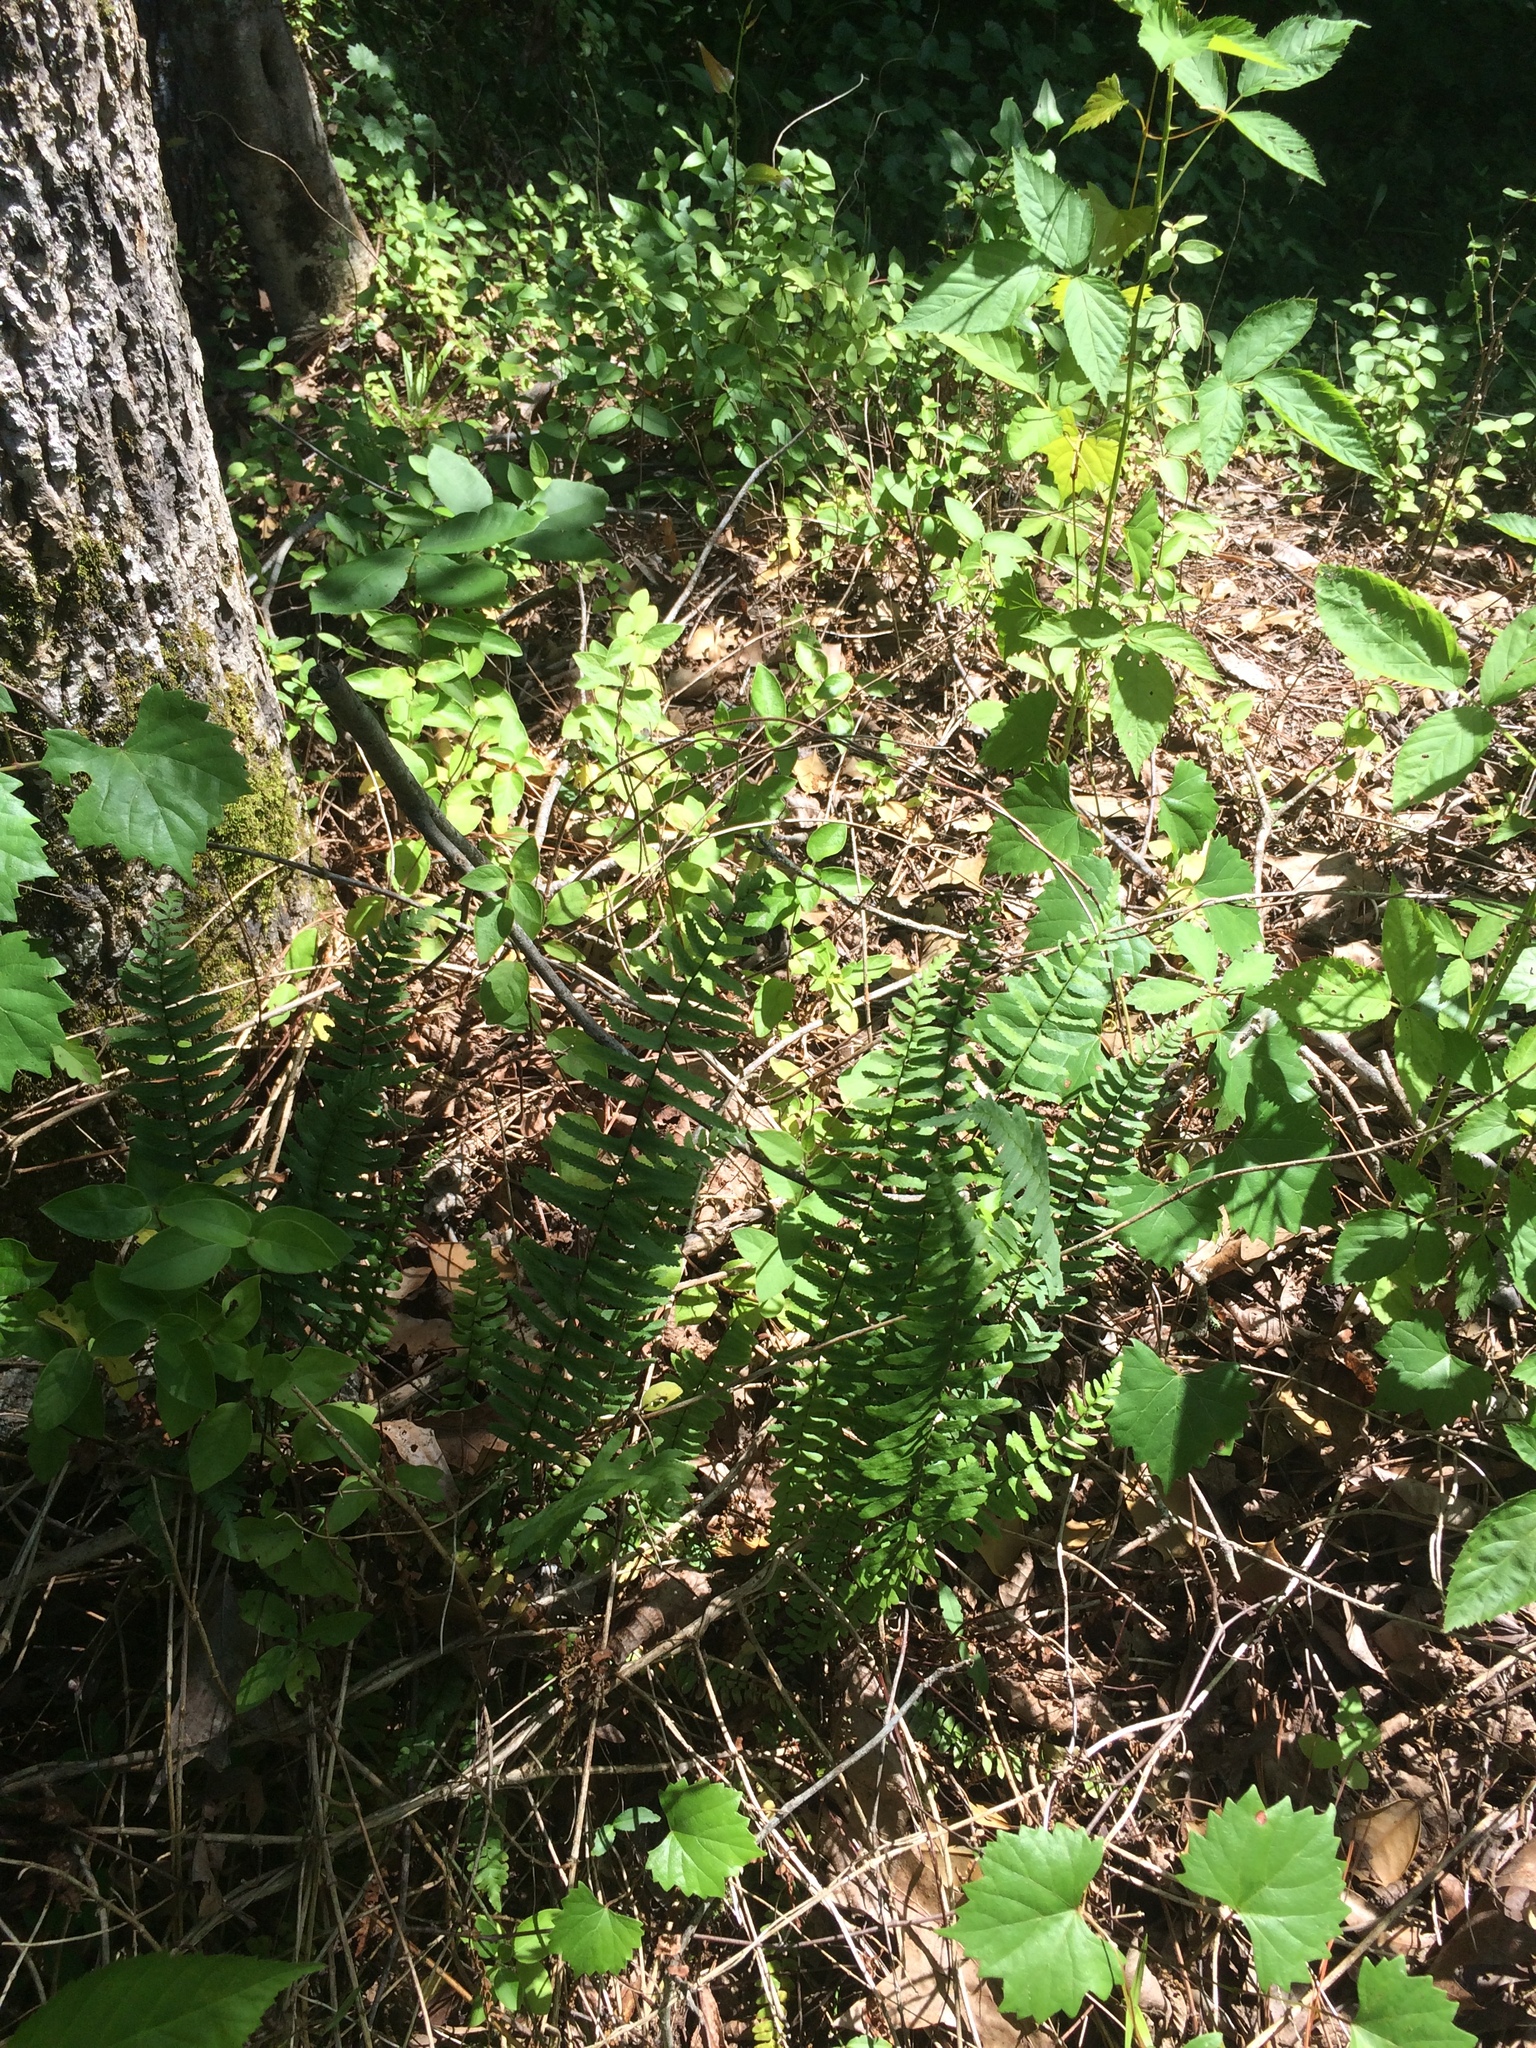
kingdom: Plantae
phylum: Tracheophyta
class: Polypodiopsida
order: Polypodiales
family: Aspleniaceae
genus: Asplenium
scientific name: Asplenium platyneuron
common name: Ebony spleenwort
